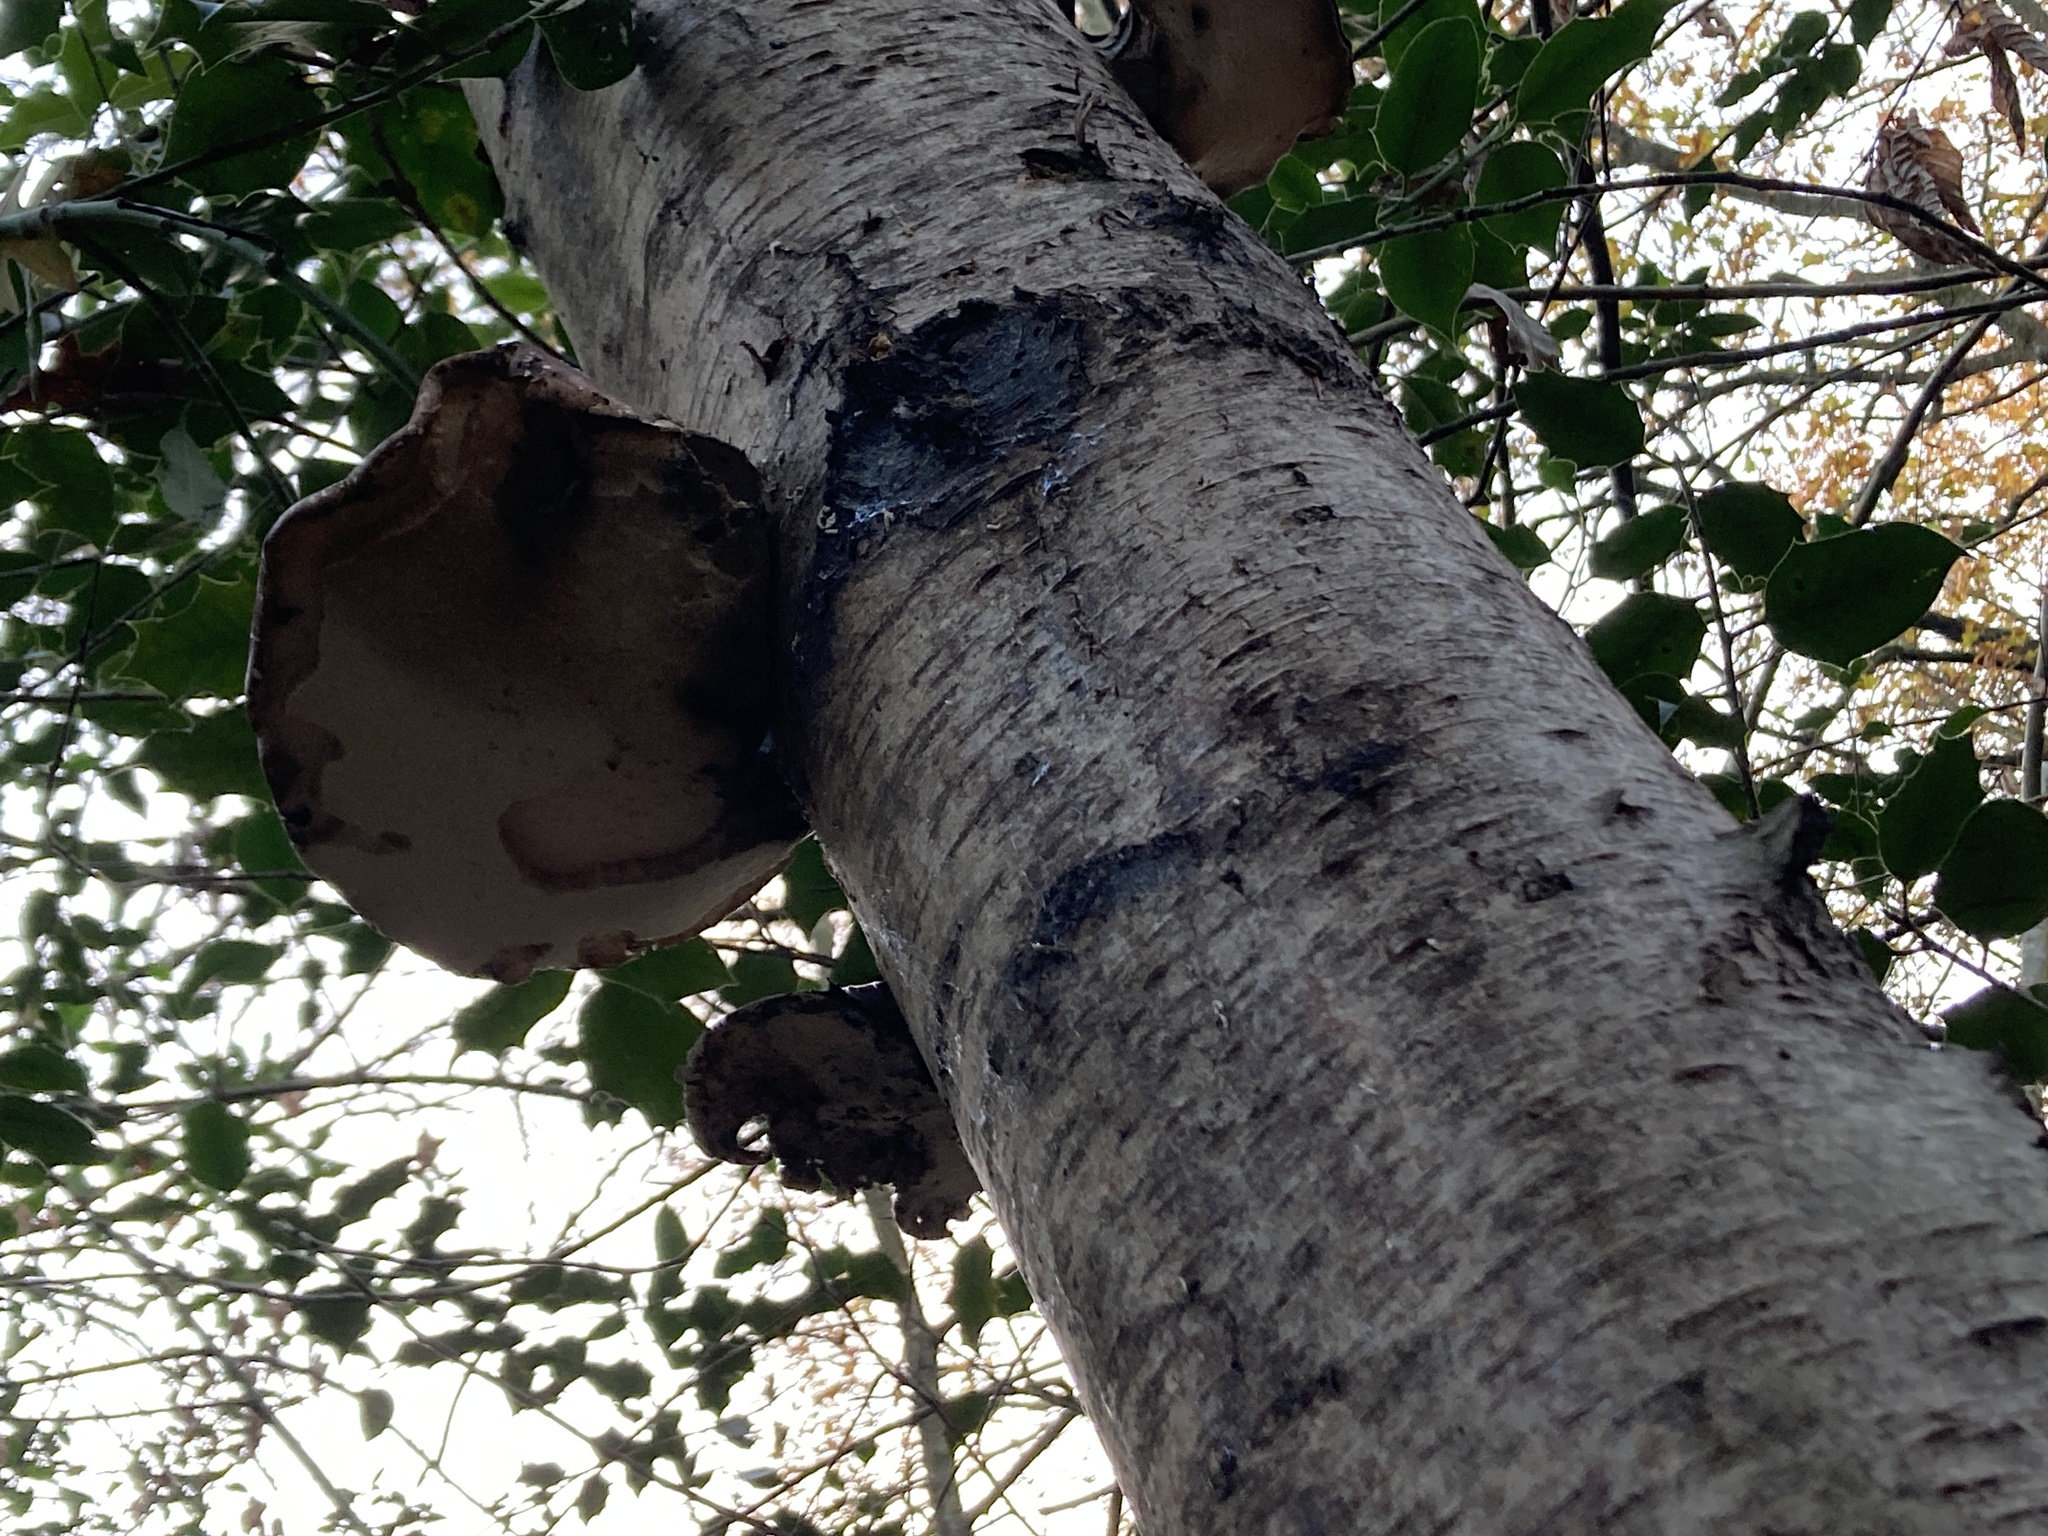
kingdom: Fungi
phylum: Basidiomycota
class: Agaricomycetes
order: Polyporales
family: Fomitopsidaceae
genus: Fomitopsis
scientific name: Fomitopsis betulina
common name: Birch polypore
